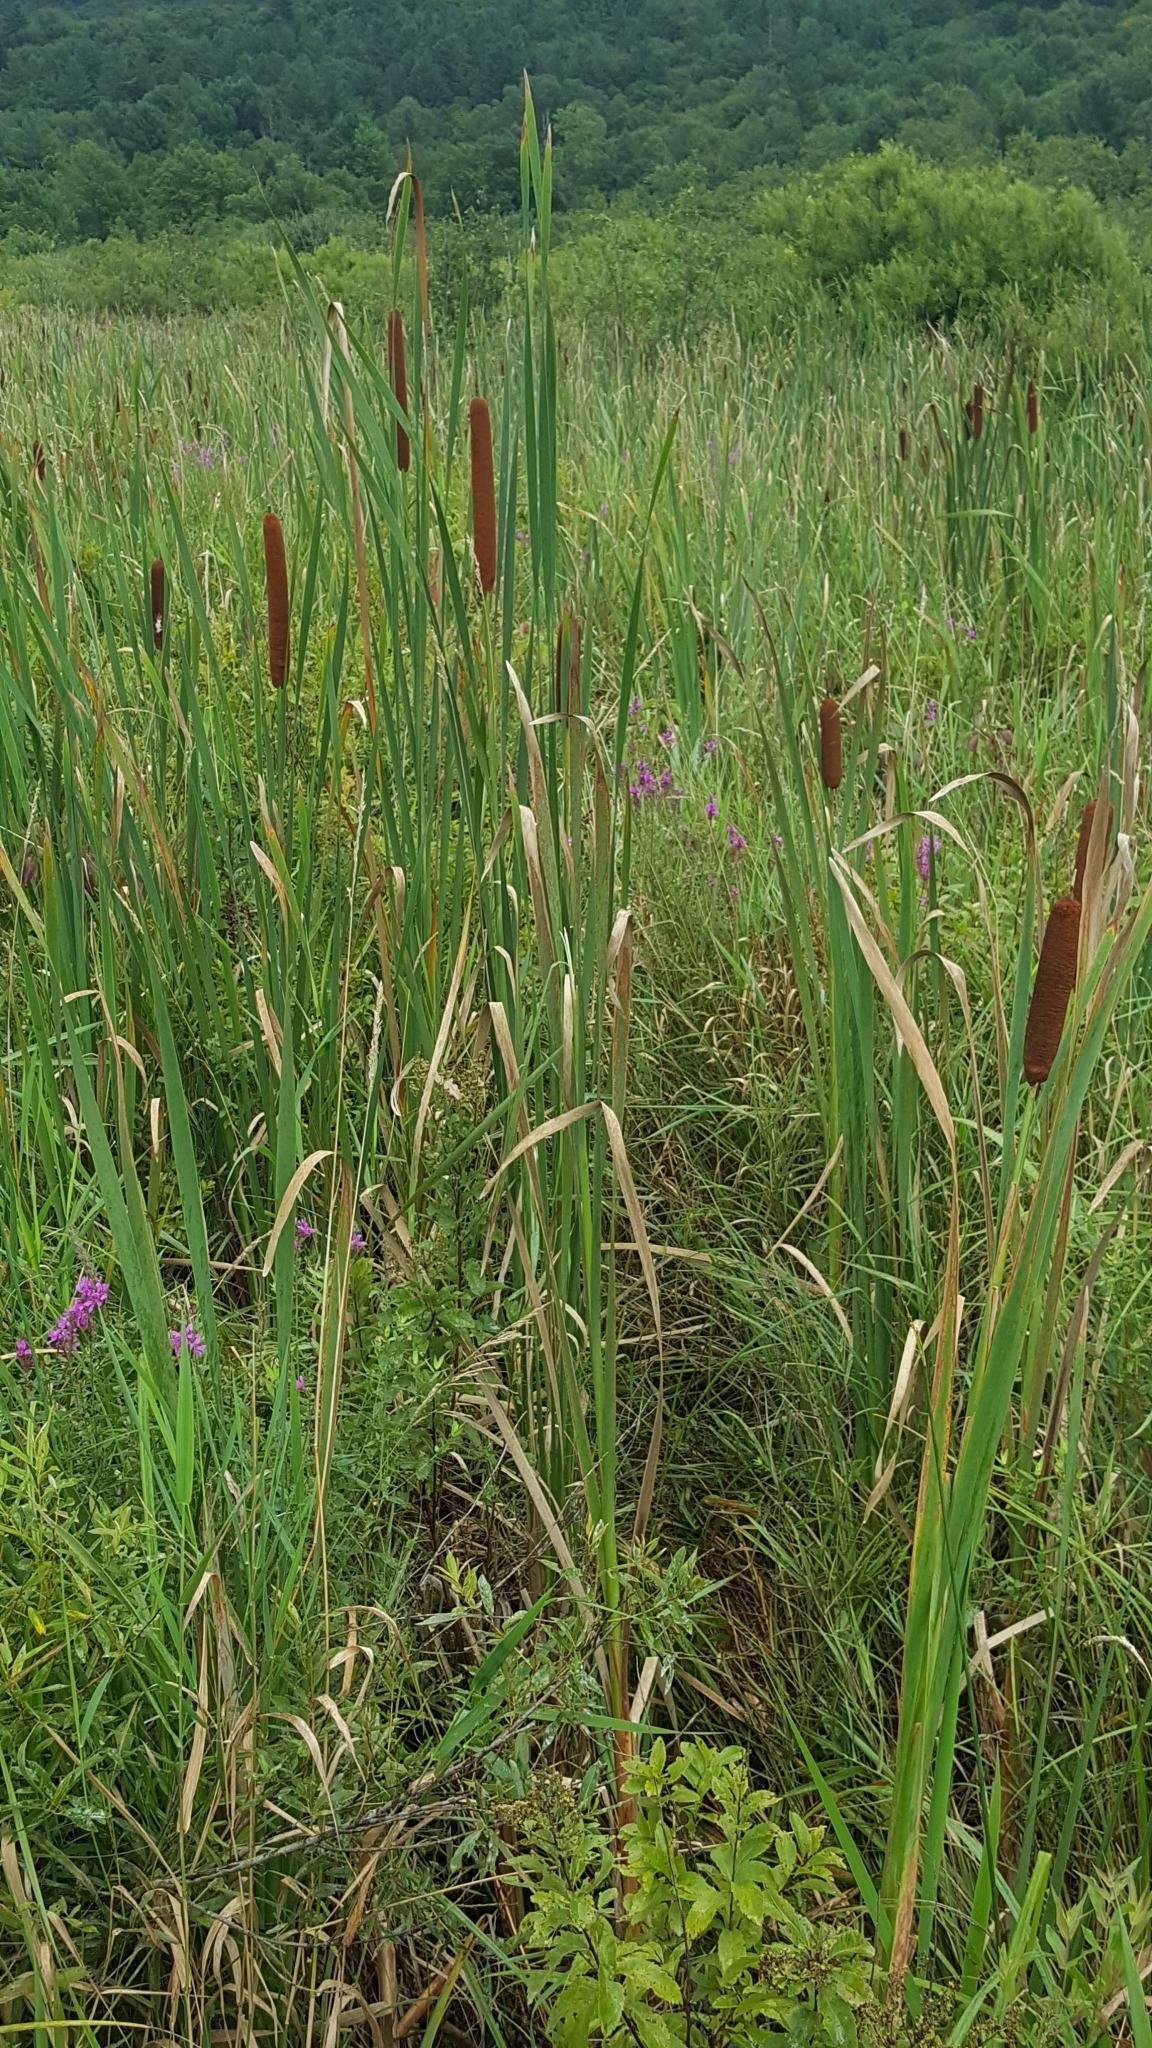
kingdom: Plantae
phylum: Tracheophyta
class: Liliopsida
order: Poales
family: Typhaceae
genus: Typha
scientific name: Typha latifolia
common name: Broadleaf cattail
